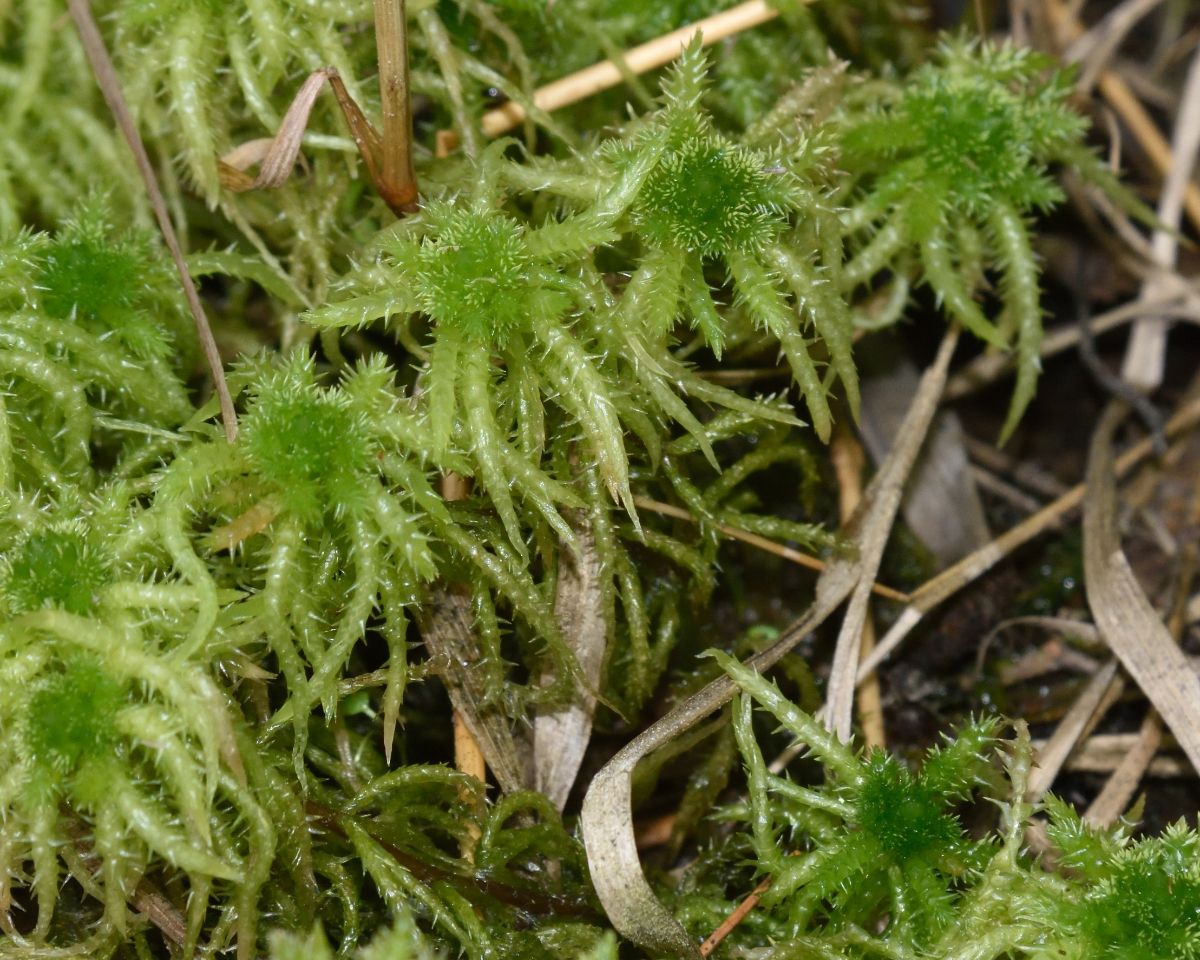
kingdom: Plantae
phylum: Bryophyta
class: Sphagnopsida
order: Sphagnales
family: Sphagnaceae
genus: Sphagnum
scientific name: Sphagnum squarrosum
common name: Shaggy peat moss
